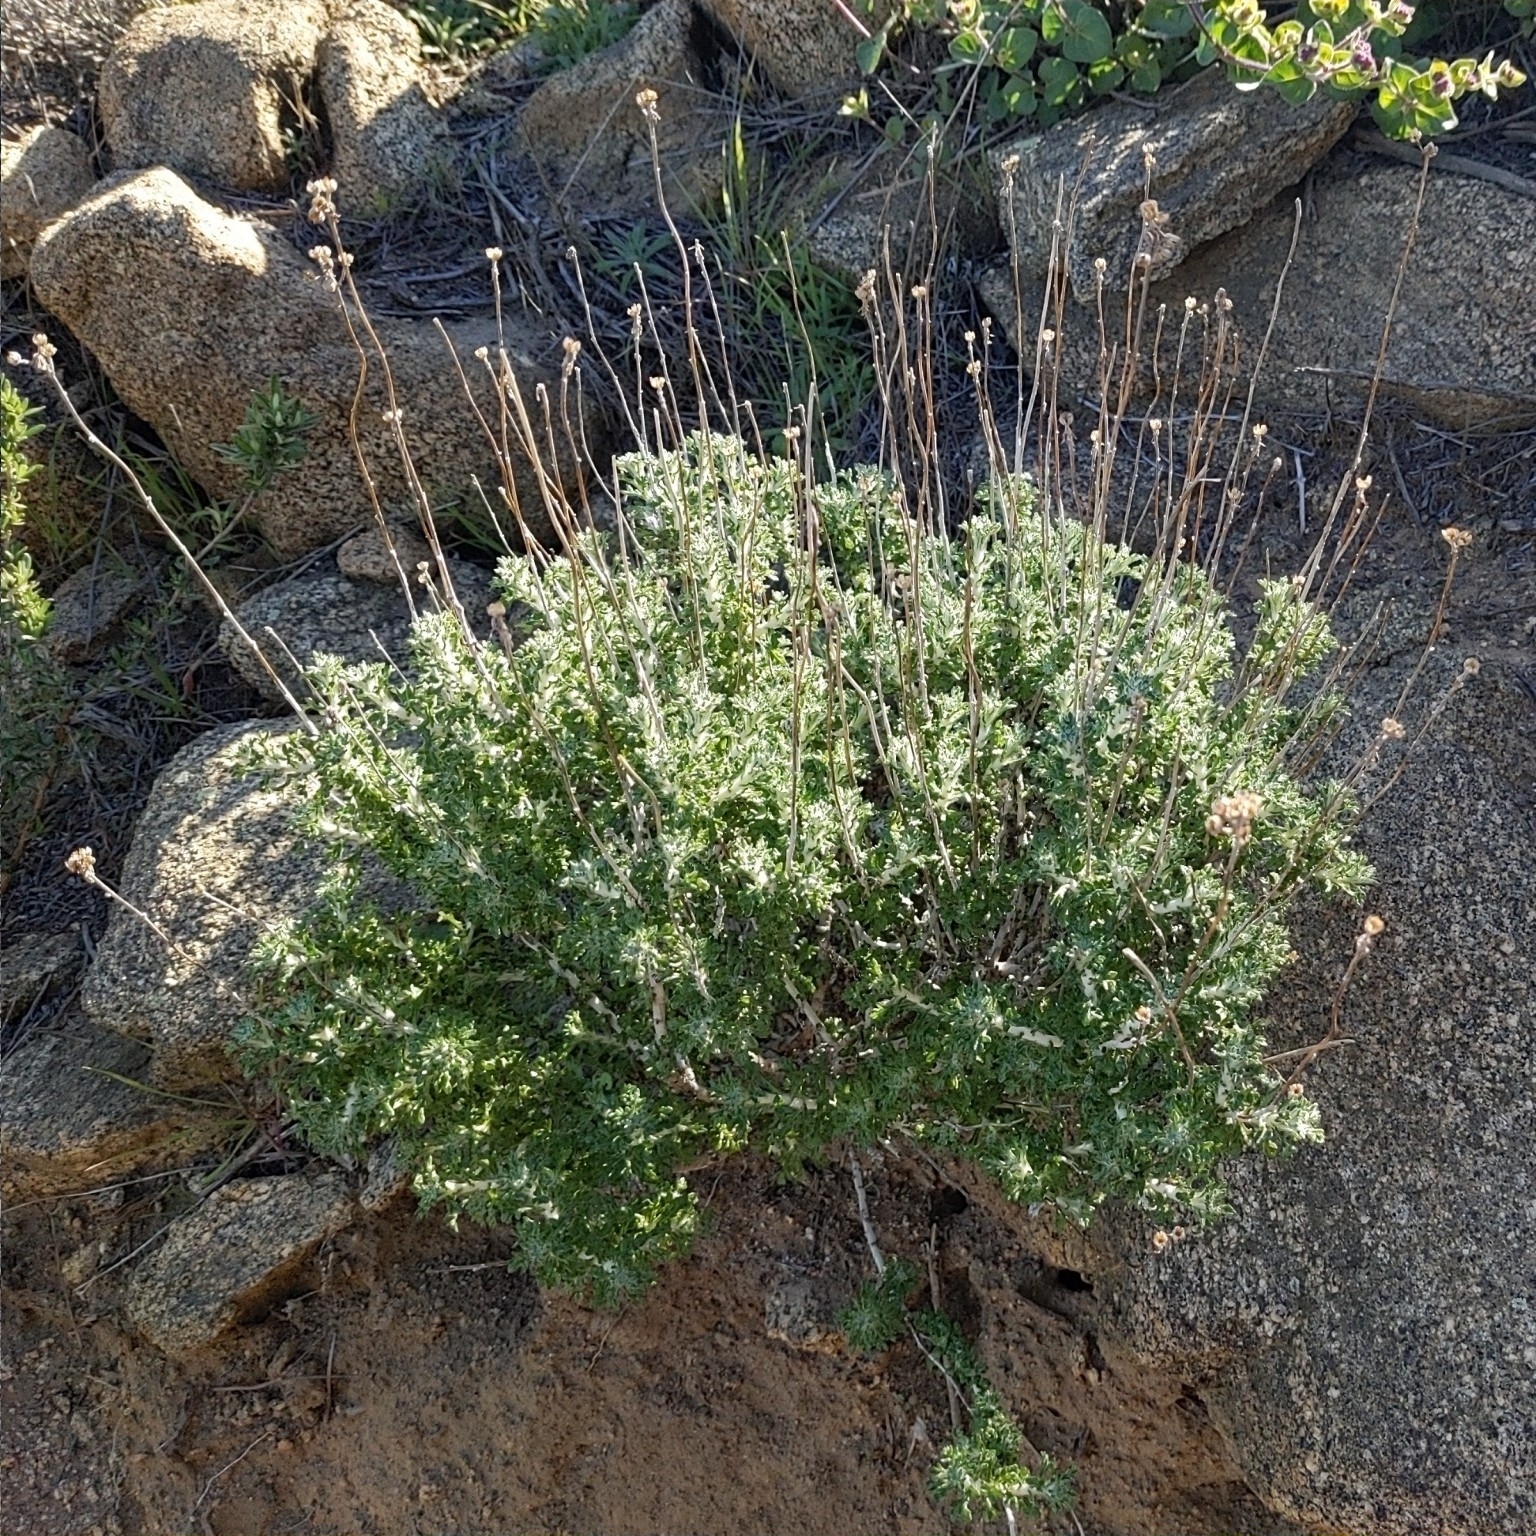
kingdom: Plantae
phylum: Tracheophyta
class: Magnoliopsida
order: Asterales
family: Asteraceae
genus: Eriophyllum
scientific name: Eriophyllum confertiflorum
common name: Golden-yarrow
